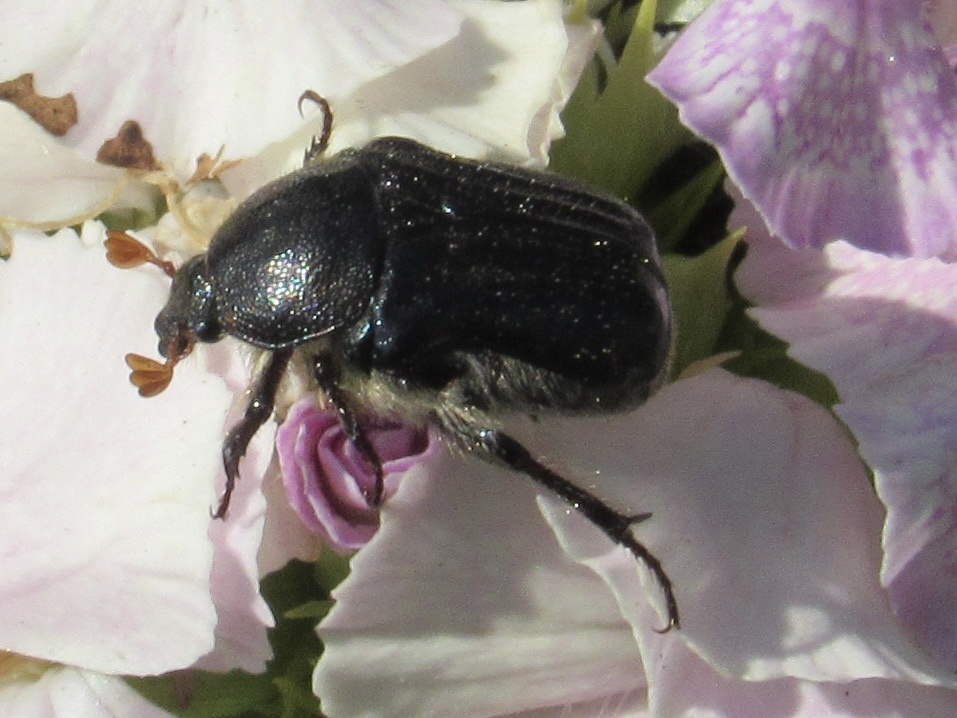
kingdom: Animalia
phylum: Arthropoda
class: Insecta
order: Coleoptera
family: Scarabaeidae
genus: Euphoria
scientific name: Euphoria kernii
